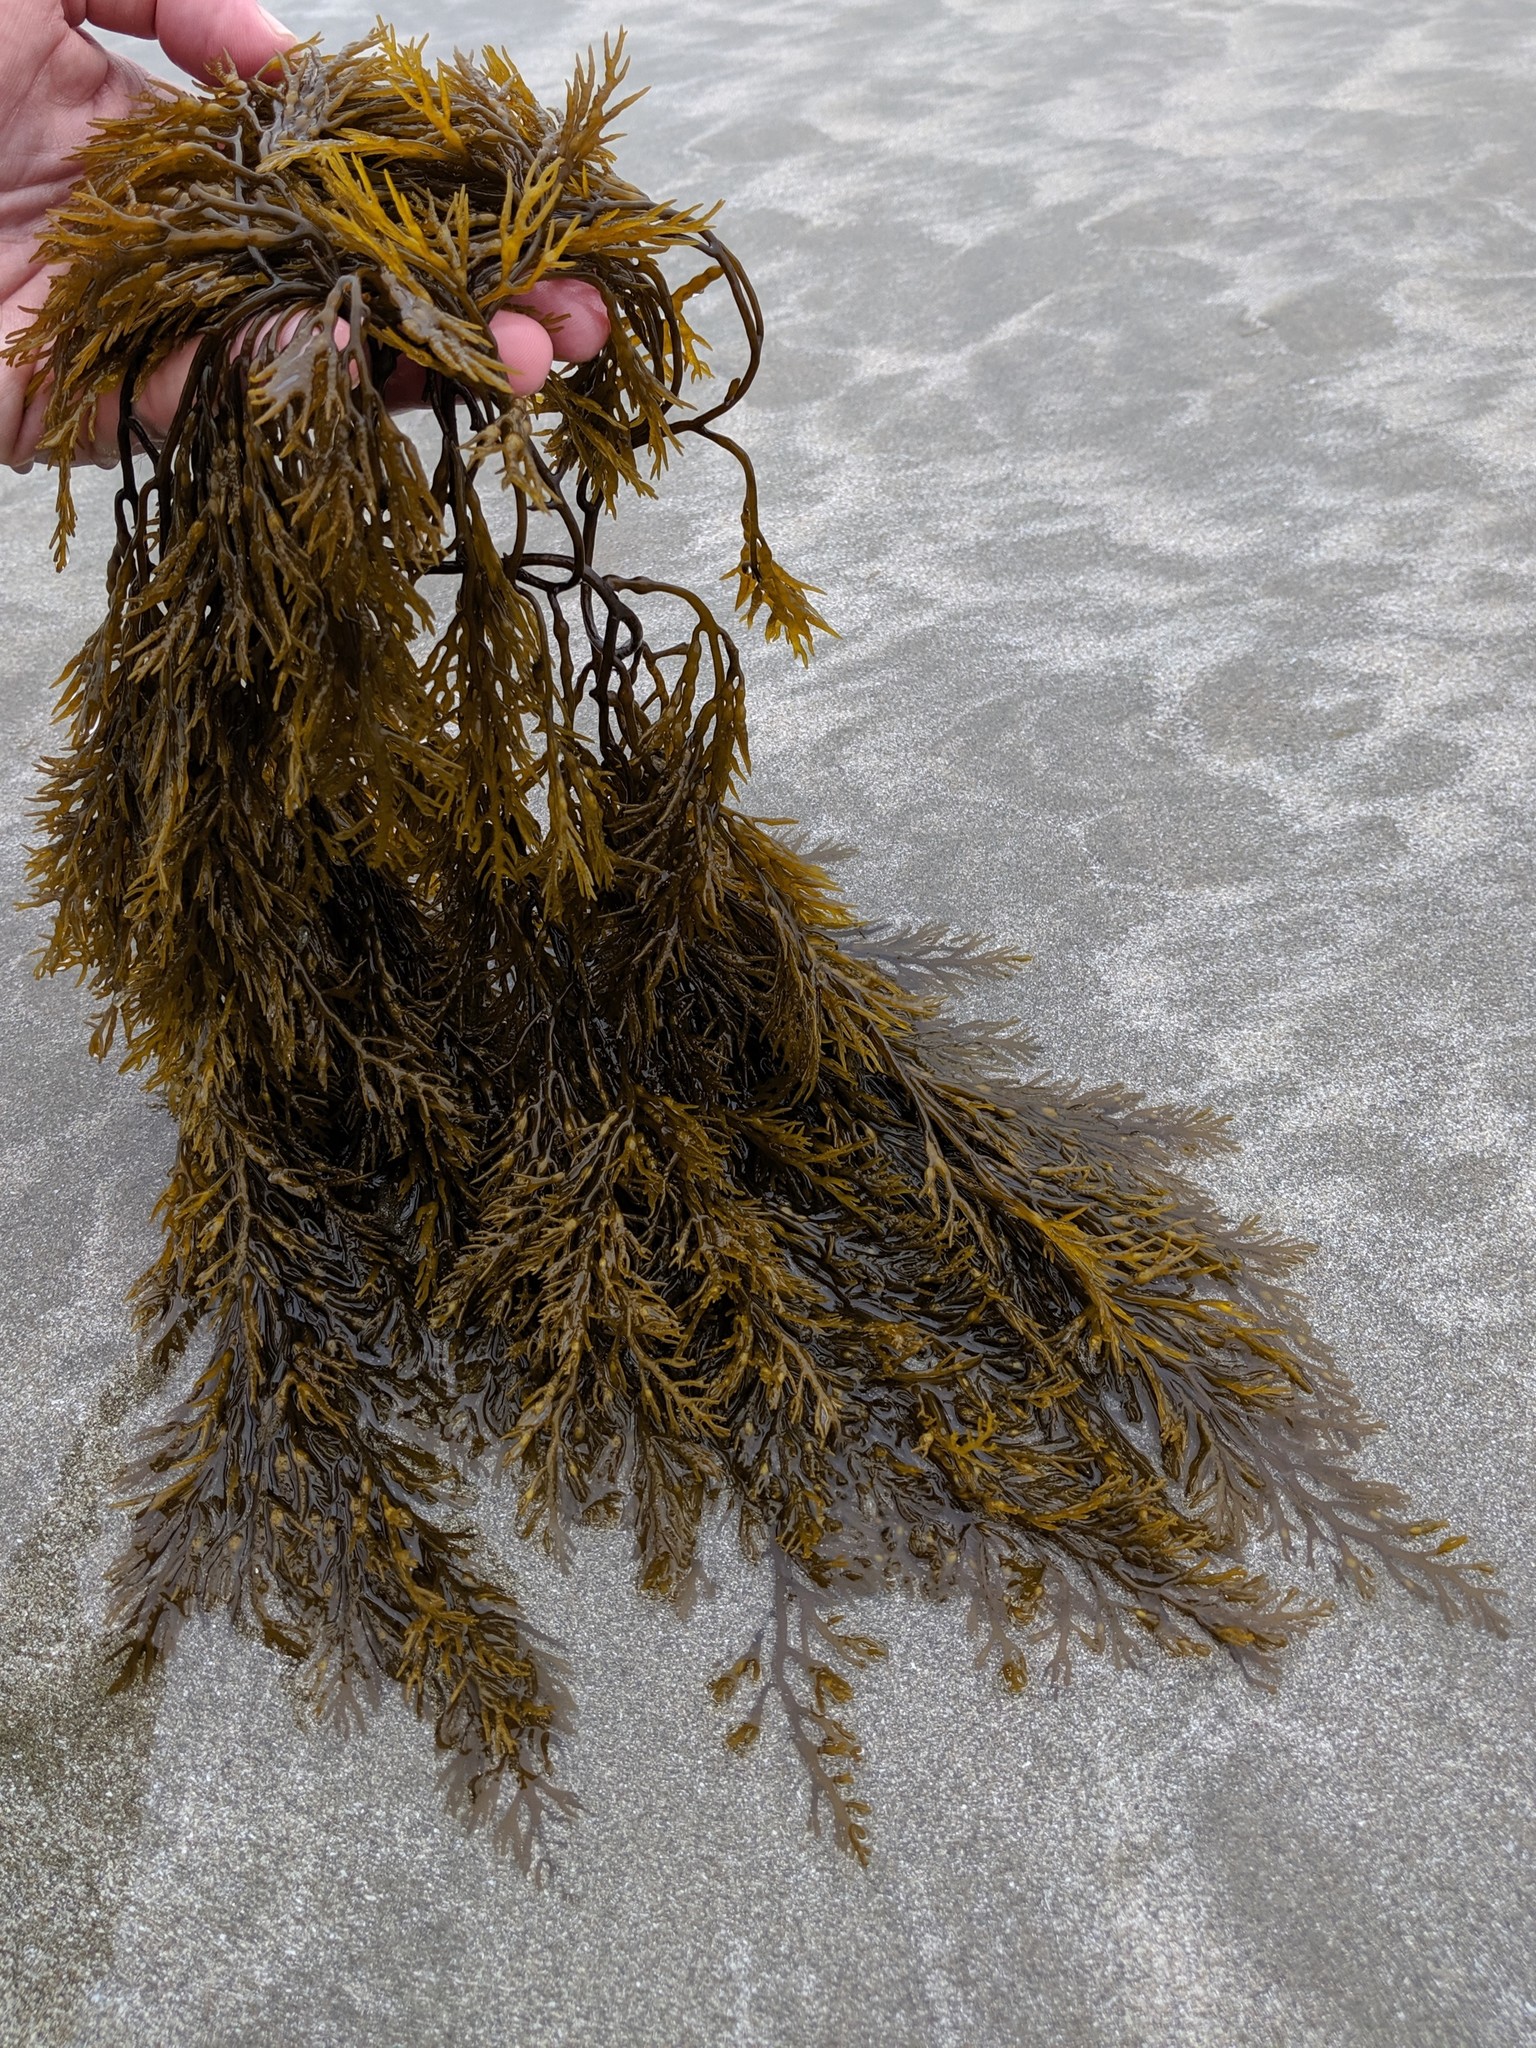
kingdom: Chromista
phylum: Ochrophyta
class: Phaeophyceae
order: Fucales
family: Sargassaceae
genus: Stephanocystis
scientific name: Stephanocystis
